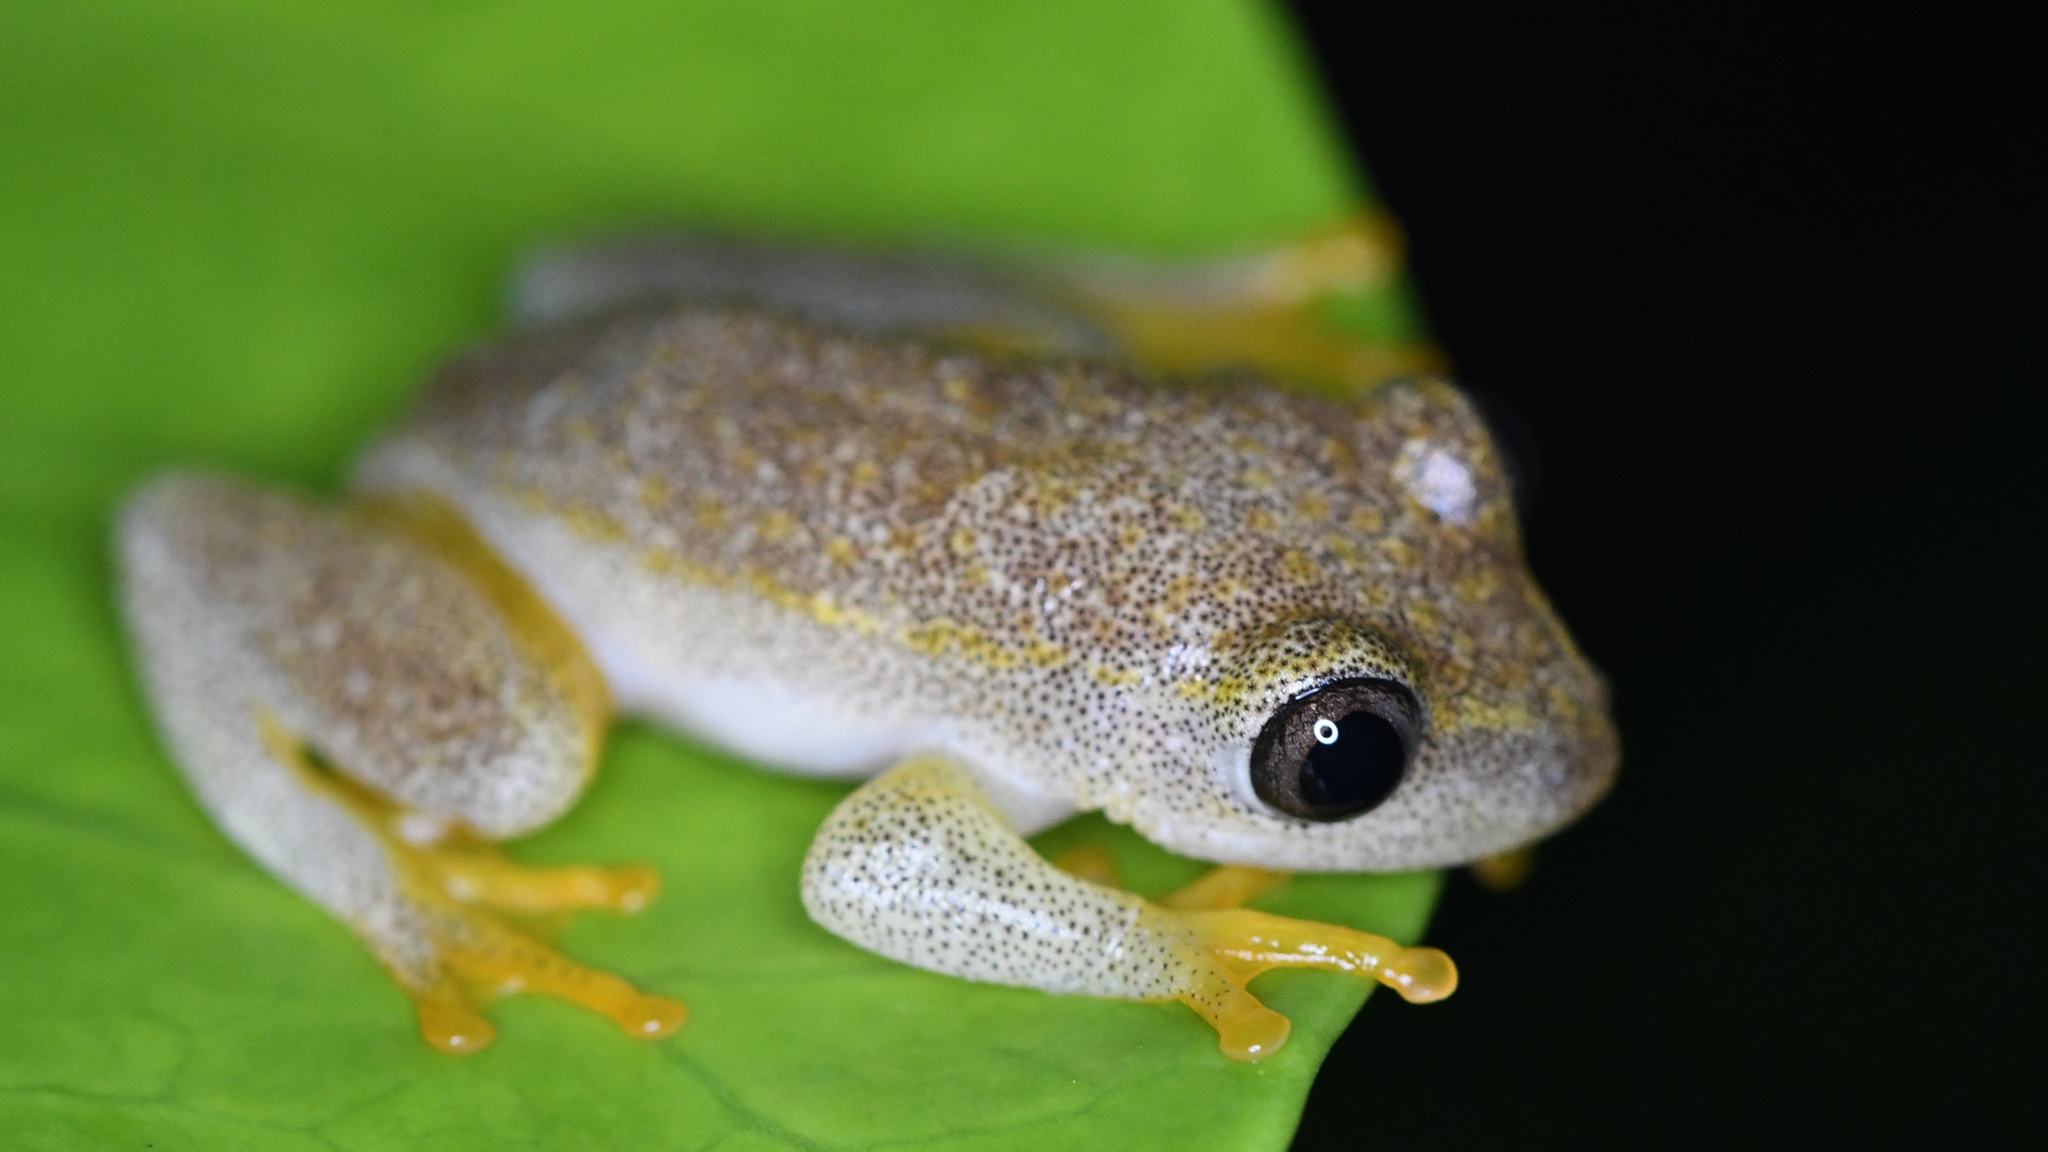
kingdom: Animalia
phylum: Chordata
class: Amphibia
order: Anura
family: Hyperoliidae
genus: Heterixalus
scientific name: Heterixalus betsileo
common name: Betsileo reed frog
